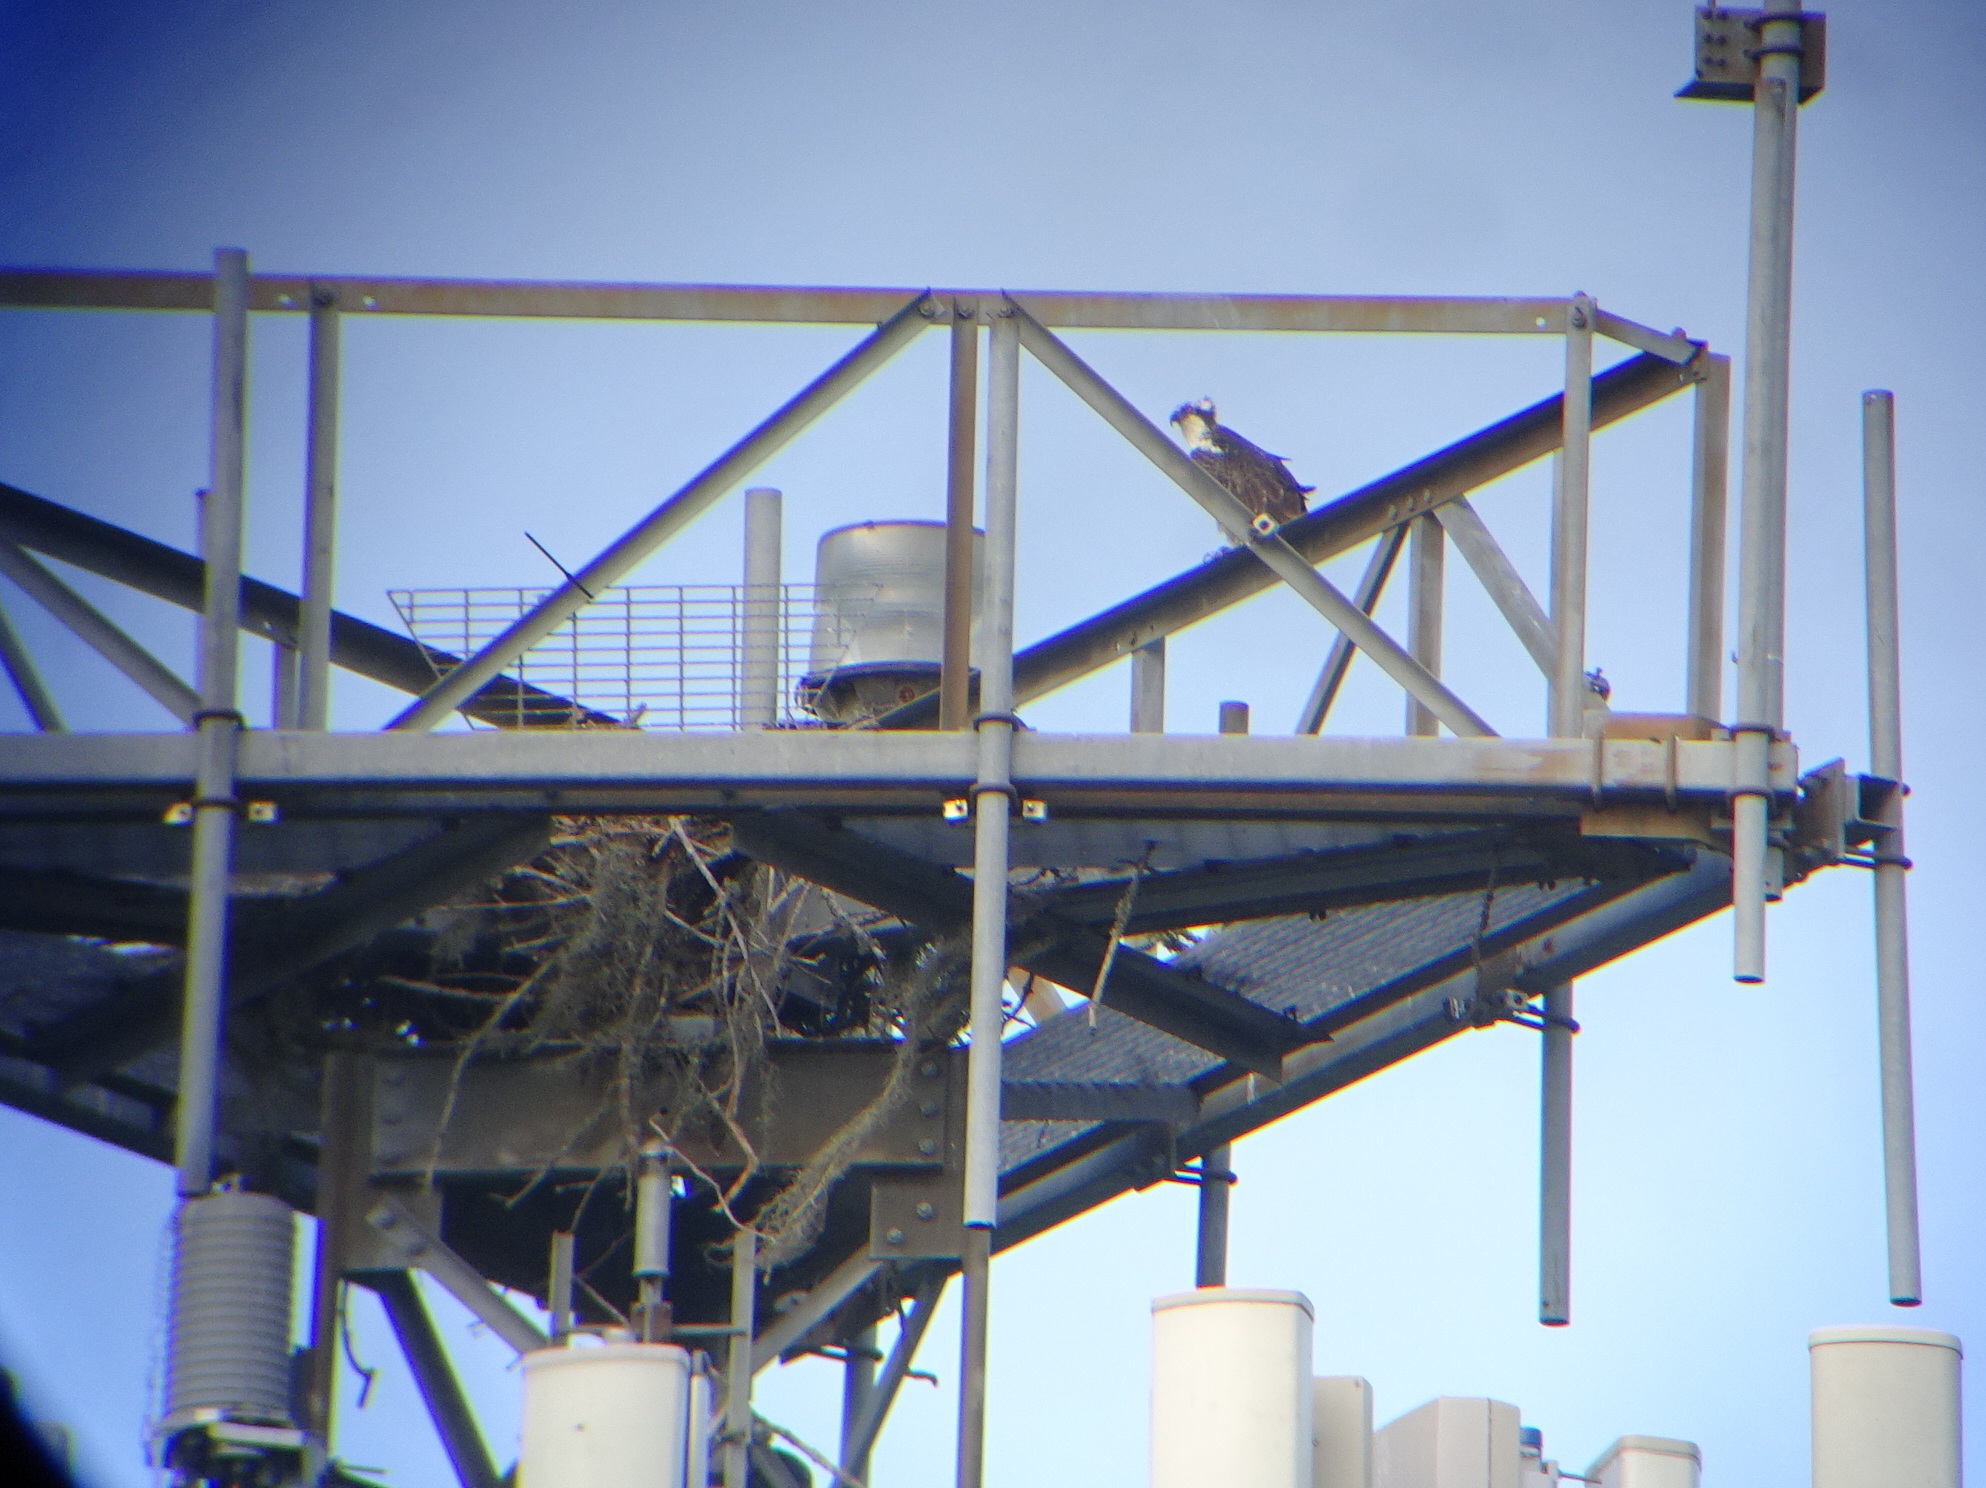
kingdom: Animalia
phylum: Chordata
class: Aves
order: Accipitriformes
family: Pandionidae
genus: Pandion
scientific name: Pandion haliaetus
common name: Osprey
